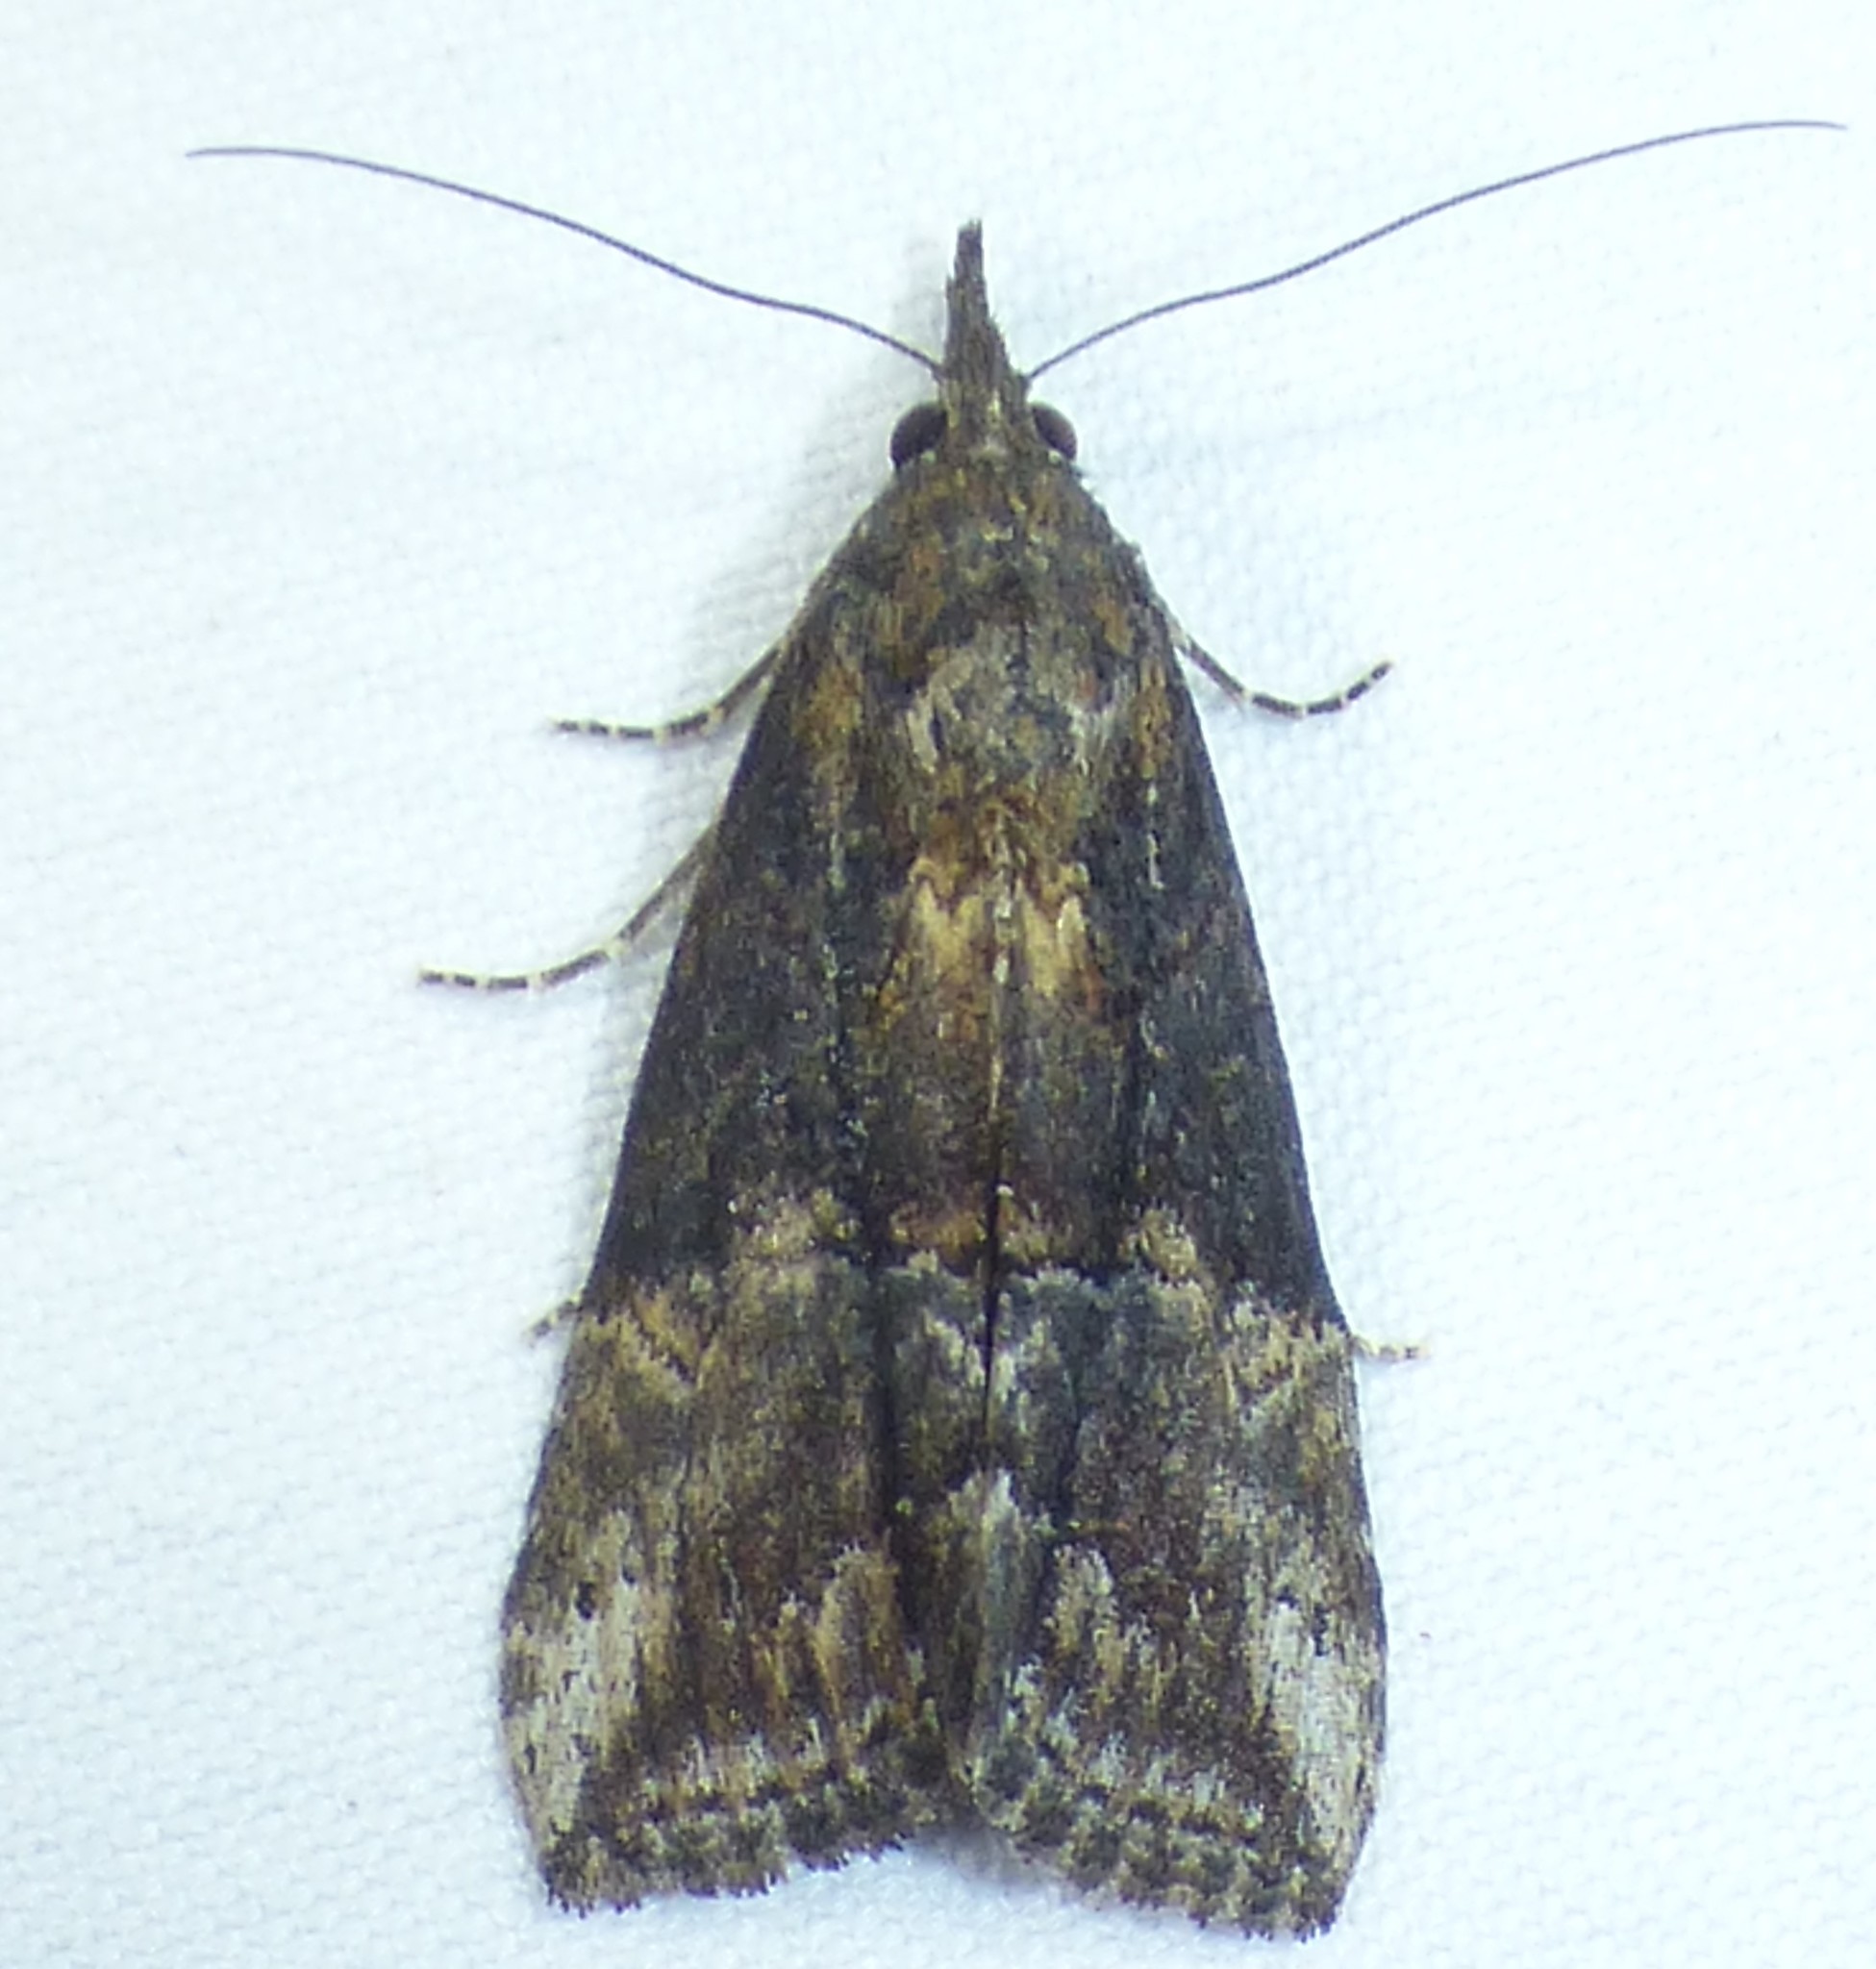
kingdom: Animalia
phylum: Arthropoda
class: Insecta
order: Lepidoptera
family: Erebidae
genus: Hypena
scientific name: Hypena scabra
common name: Green cloverworm
